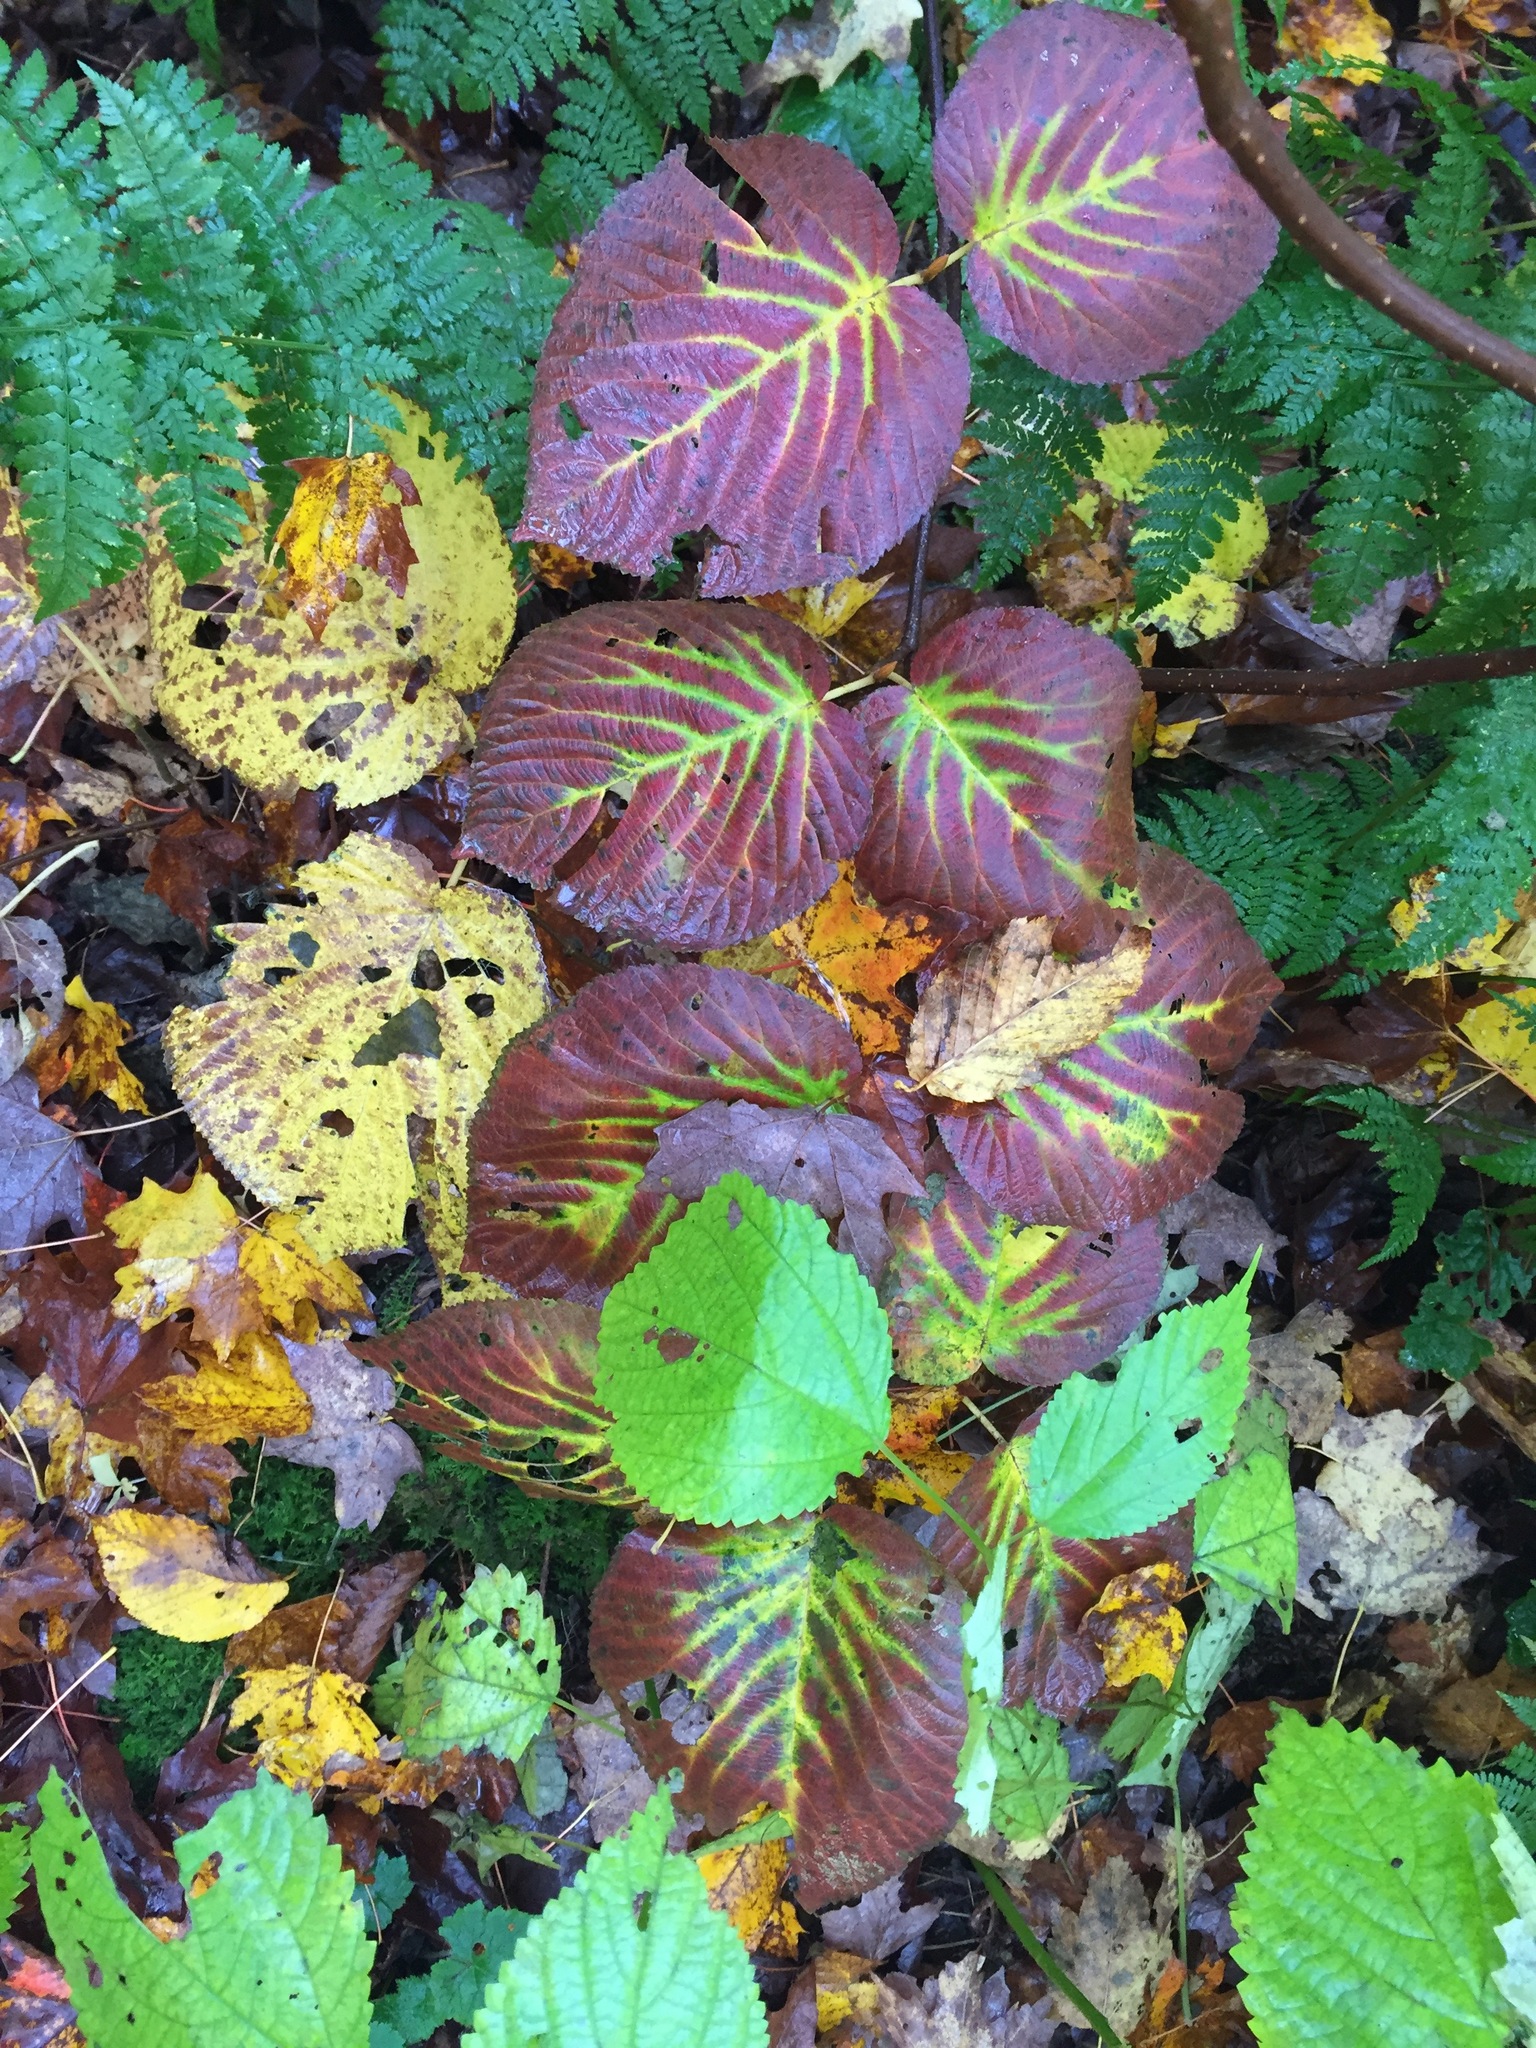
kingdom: Plantae
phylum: Tracheophyta
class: Magnoliopsida
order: Dipsacales
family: Viburnaceae
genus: Viburnum
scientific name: Viburnum lantanoides
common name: Hobblebush
